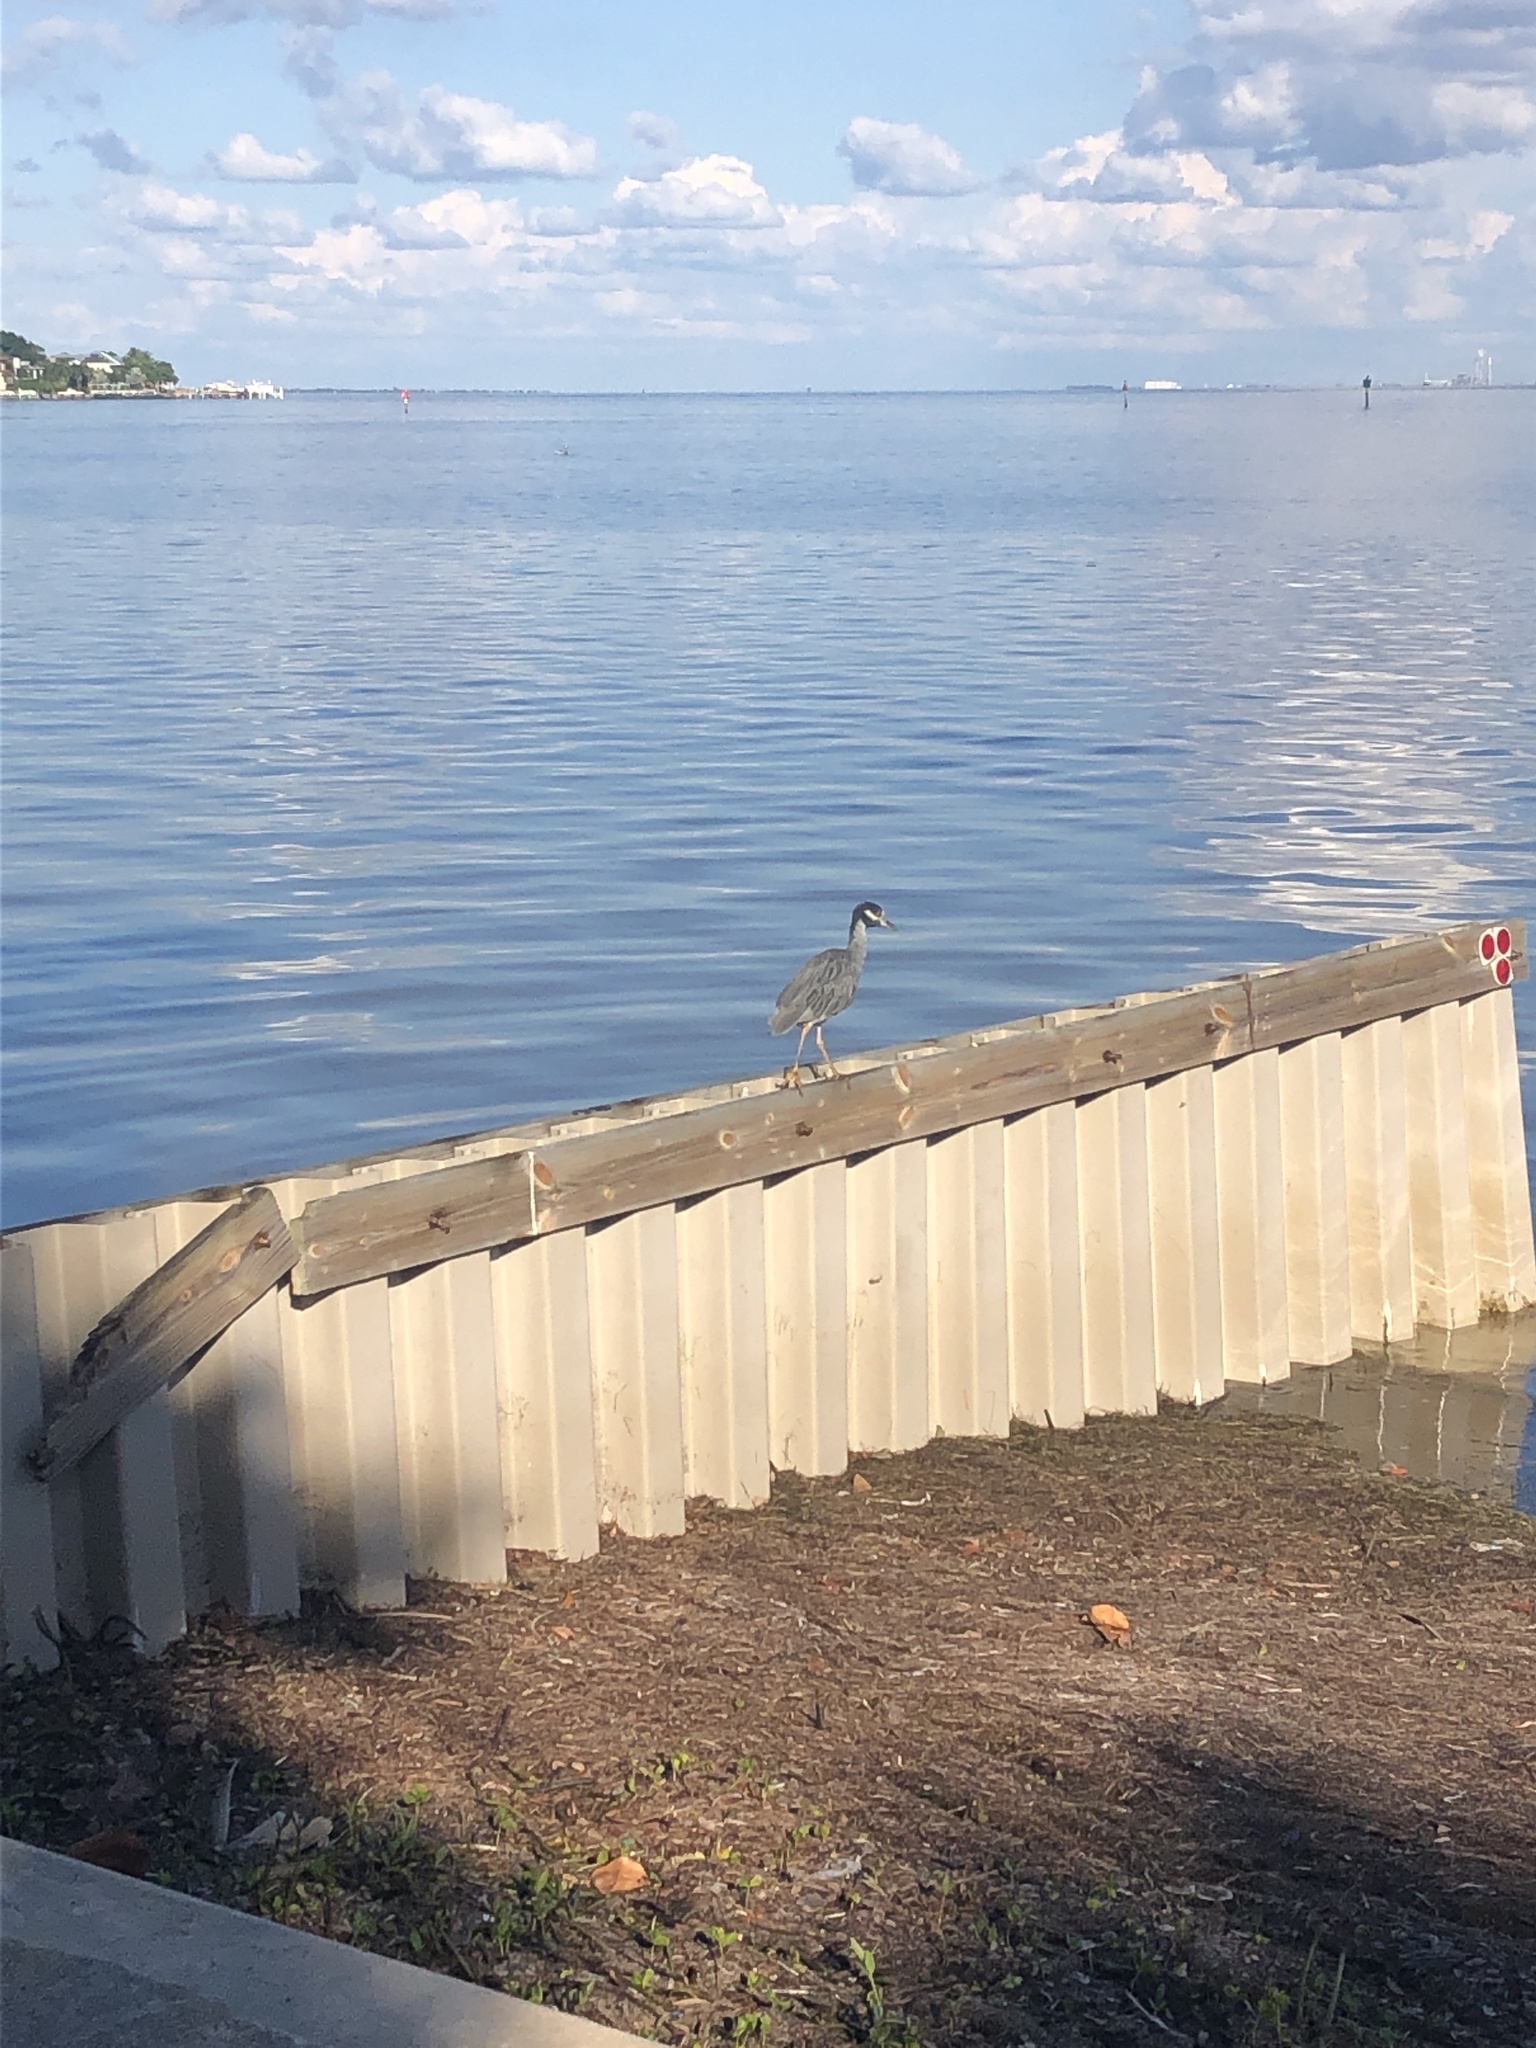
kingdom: Animalia
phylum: Chordata
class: Aves
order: Pelecaniformes
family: Ardeidae
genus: Nyctanassa
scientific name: Nyctanassa violacea
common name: Yellow-crowned night heron
